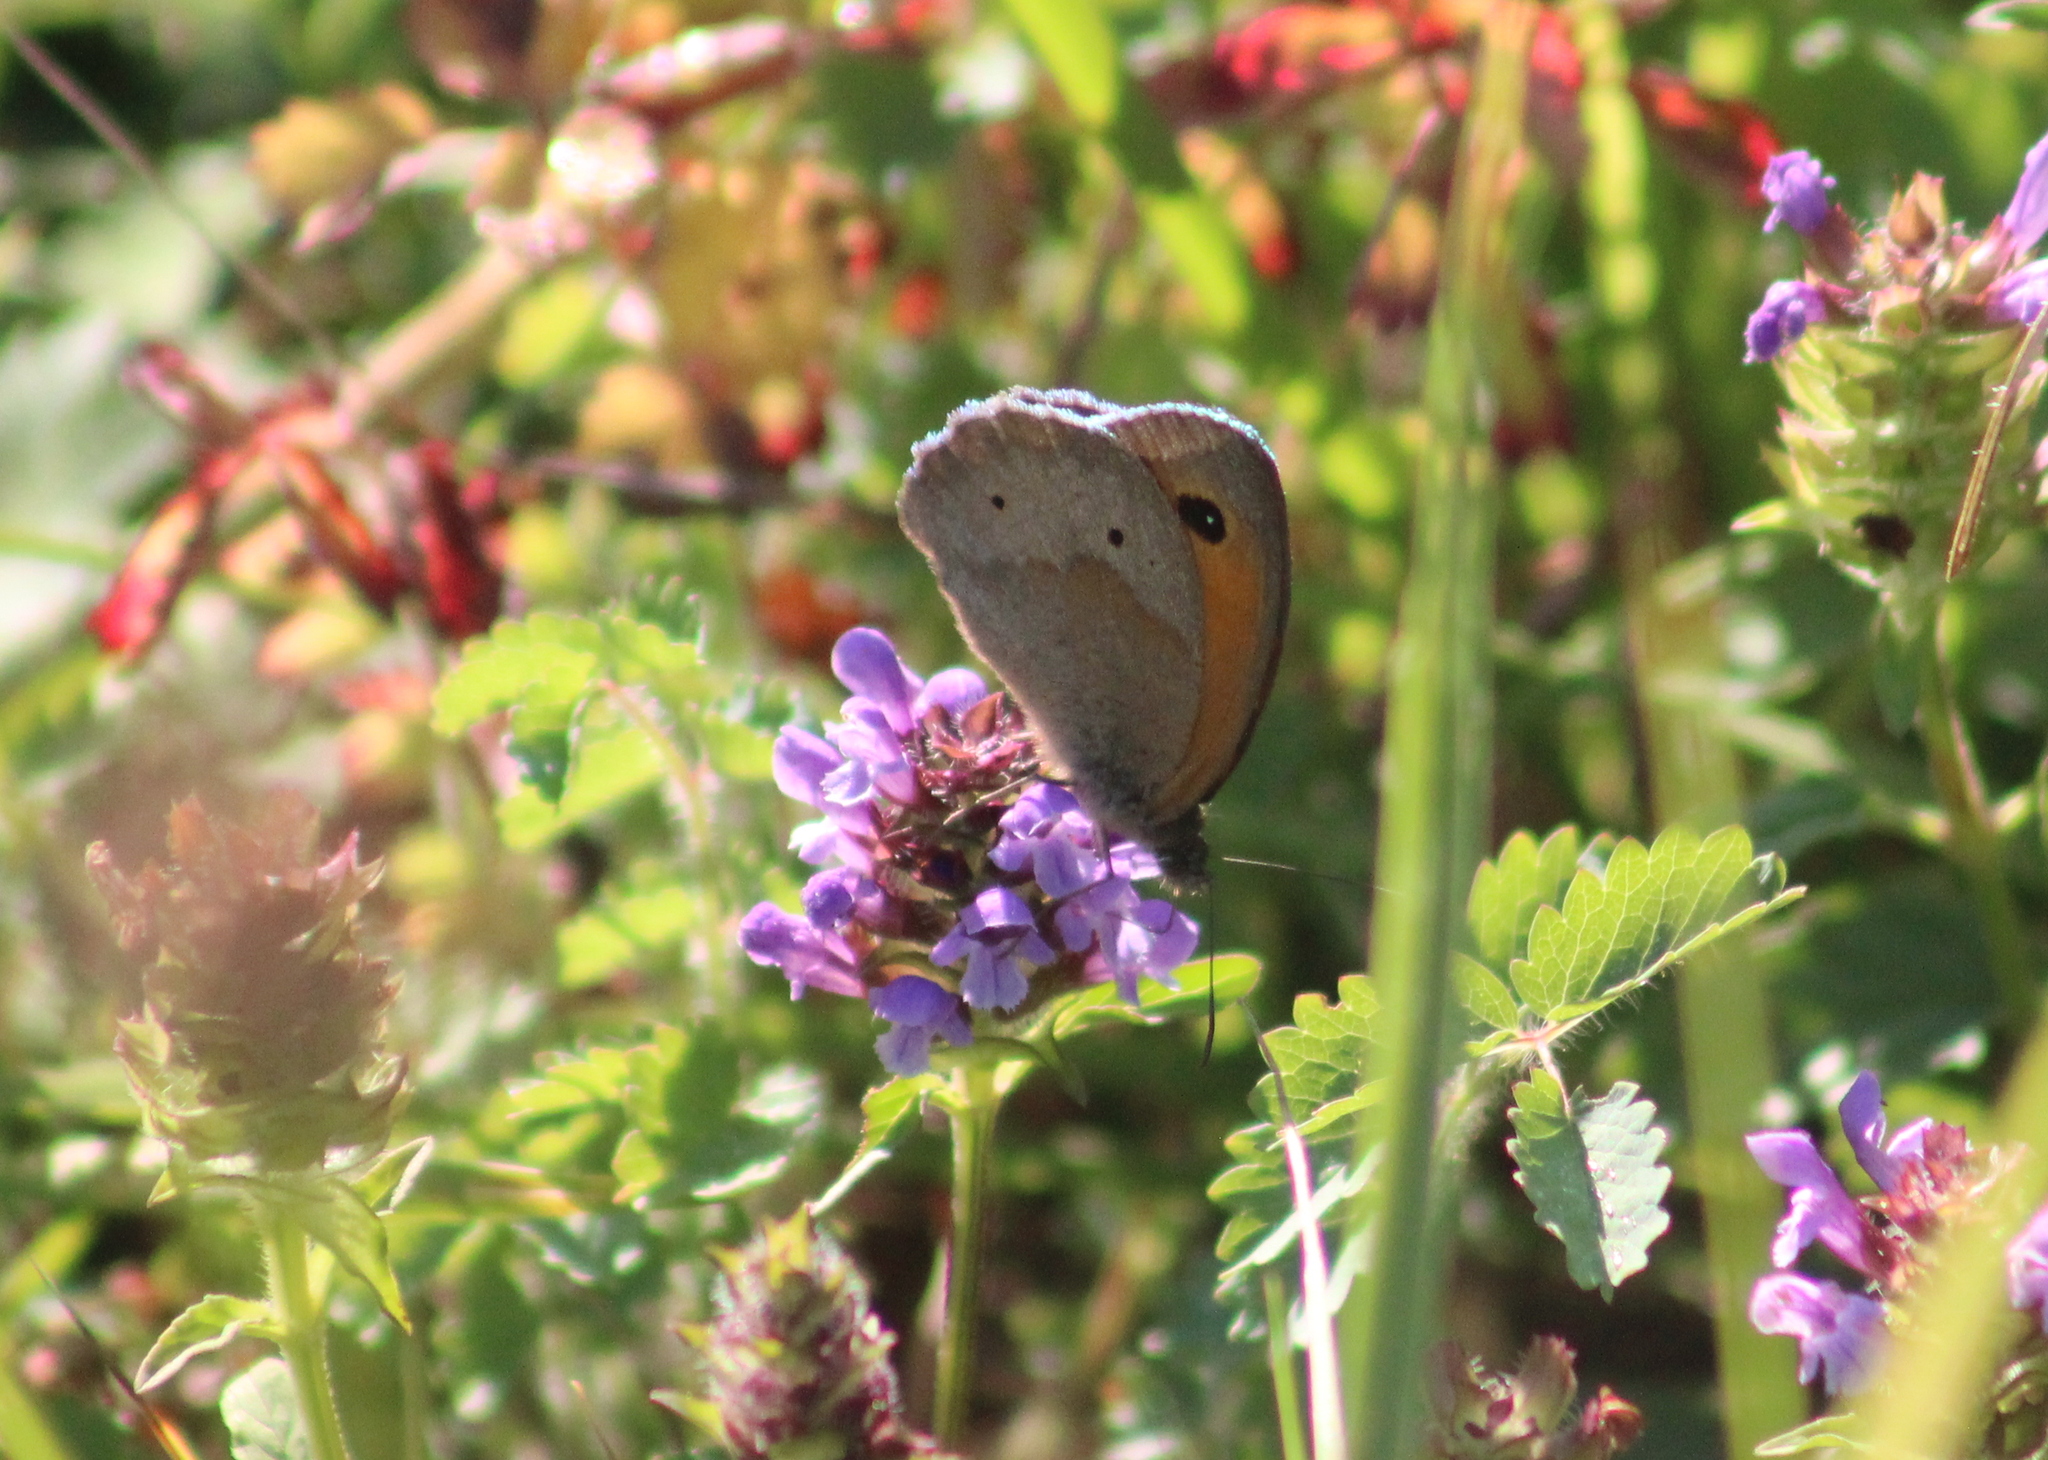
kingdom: Animalia
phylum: Arthropoda
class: Insecta
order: Lepidoptera
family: Nymphalidae
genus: Maniola
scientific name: Maniola jurtina
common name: Meadow brown
